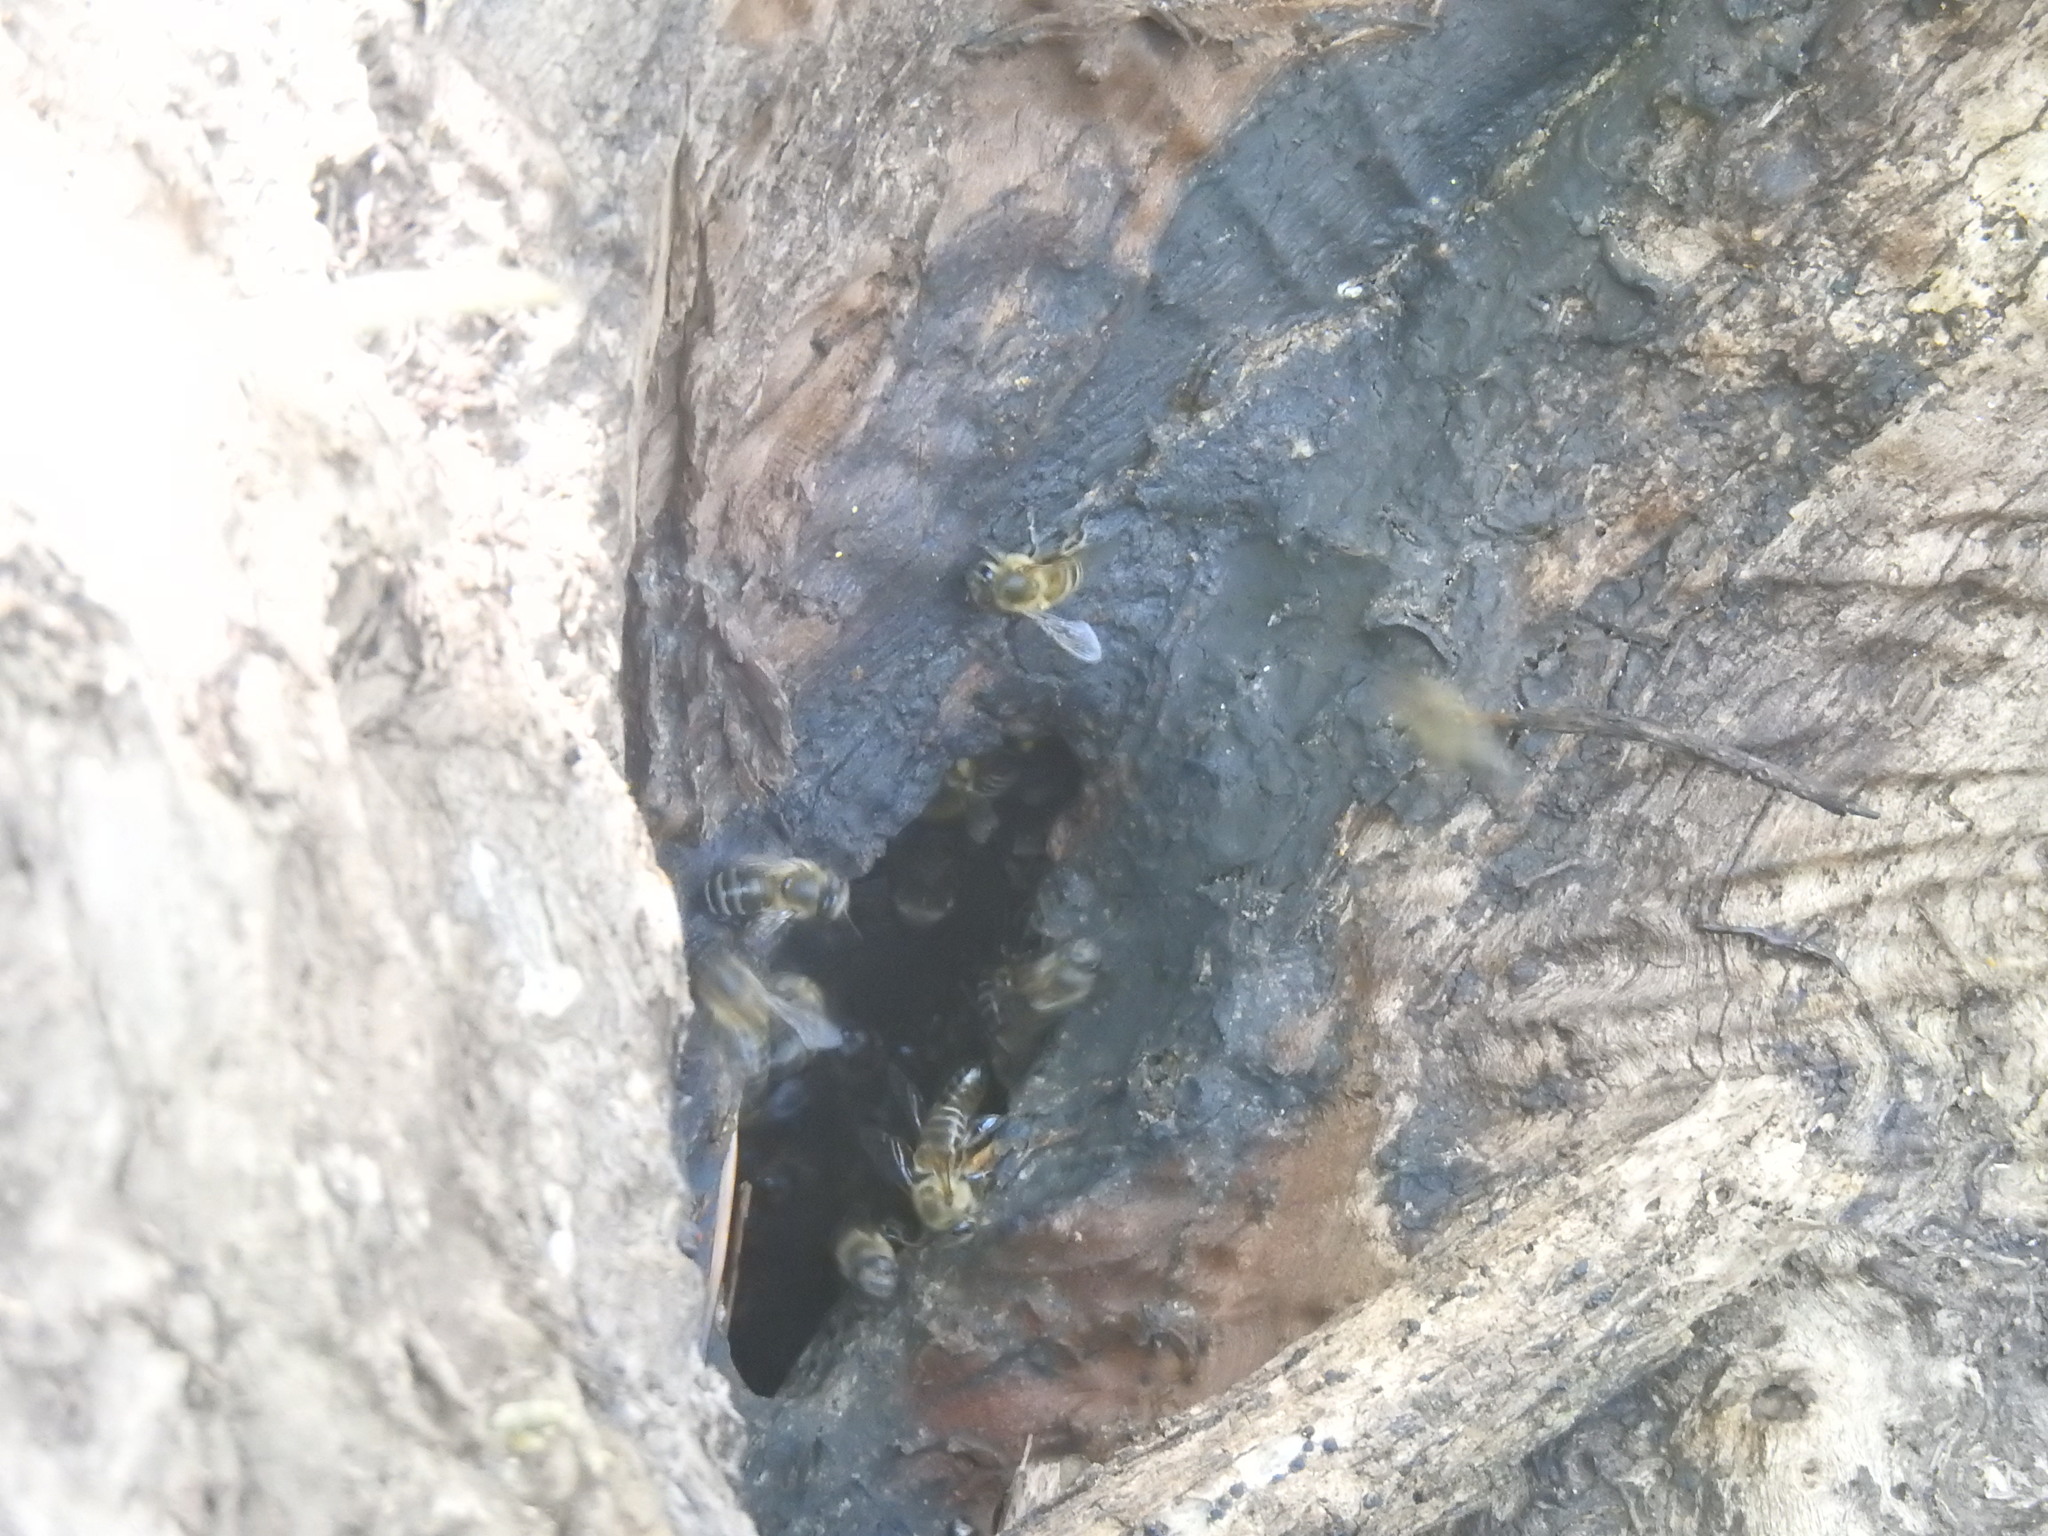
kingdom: Animalia
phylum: Arthropoda
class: Insecta
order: Hymenoptera
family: Apidae
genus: Apis
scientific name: Apis mellifera
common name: Honey bee
